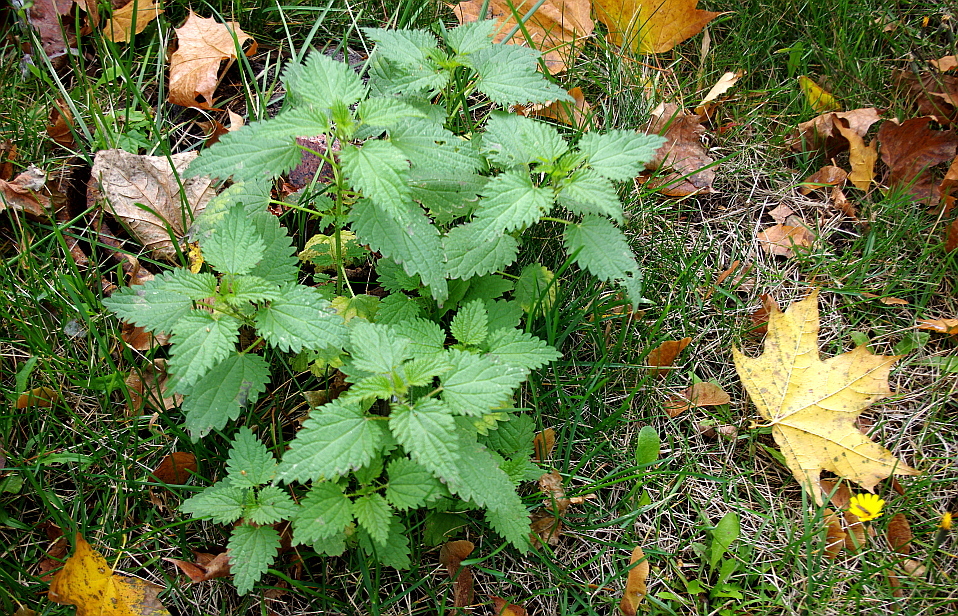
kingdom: Plantae
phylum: Tracheophyta
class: Magnoliopsida
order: Rosales
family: Urticaceae
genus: Urtica
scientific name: Urtica dioica
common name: Common nettle
